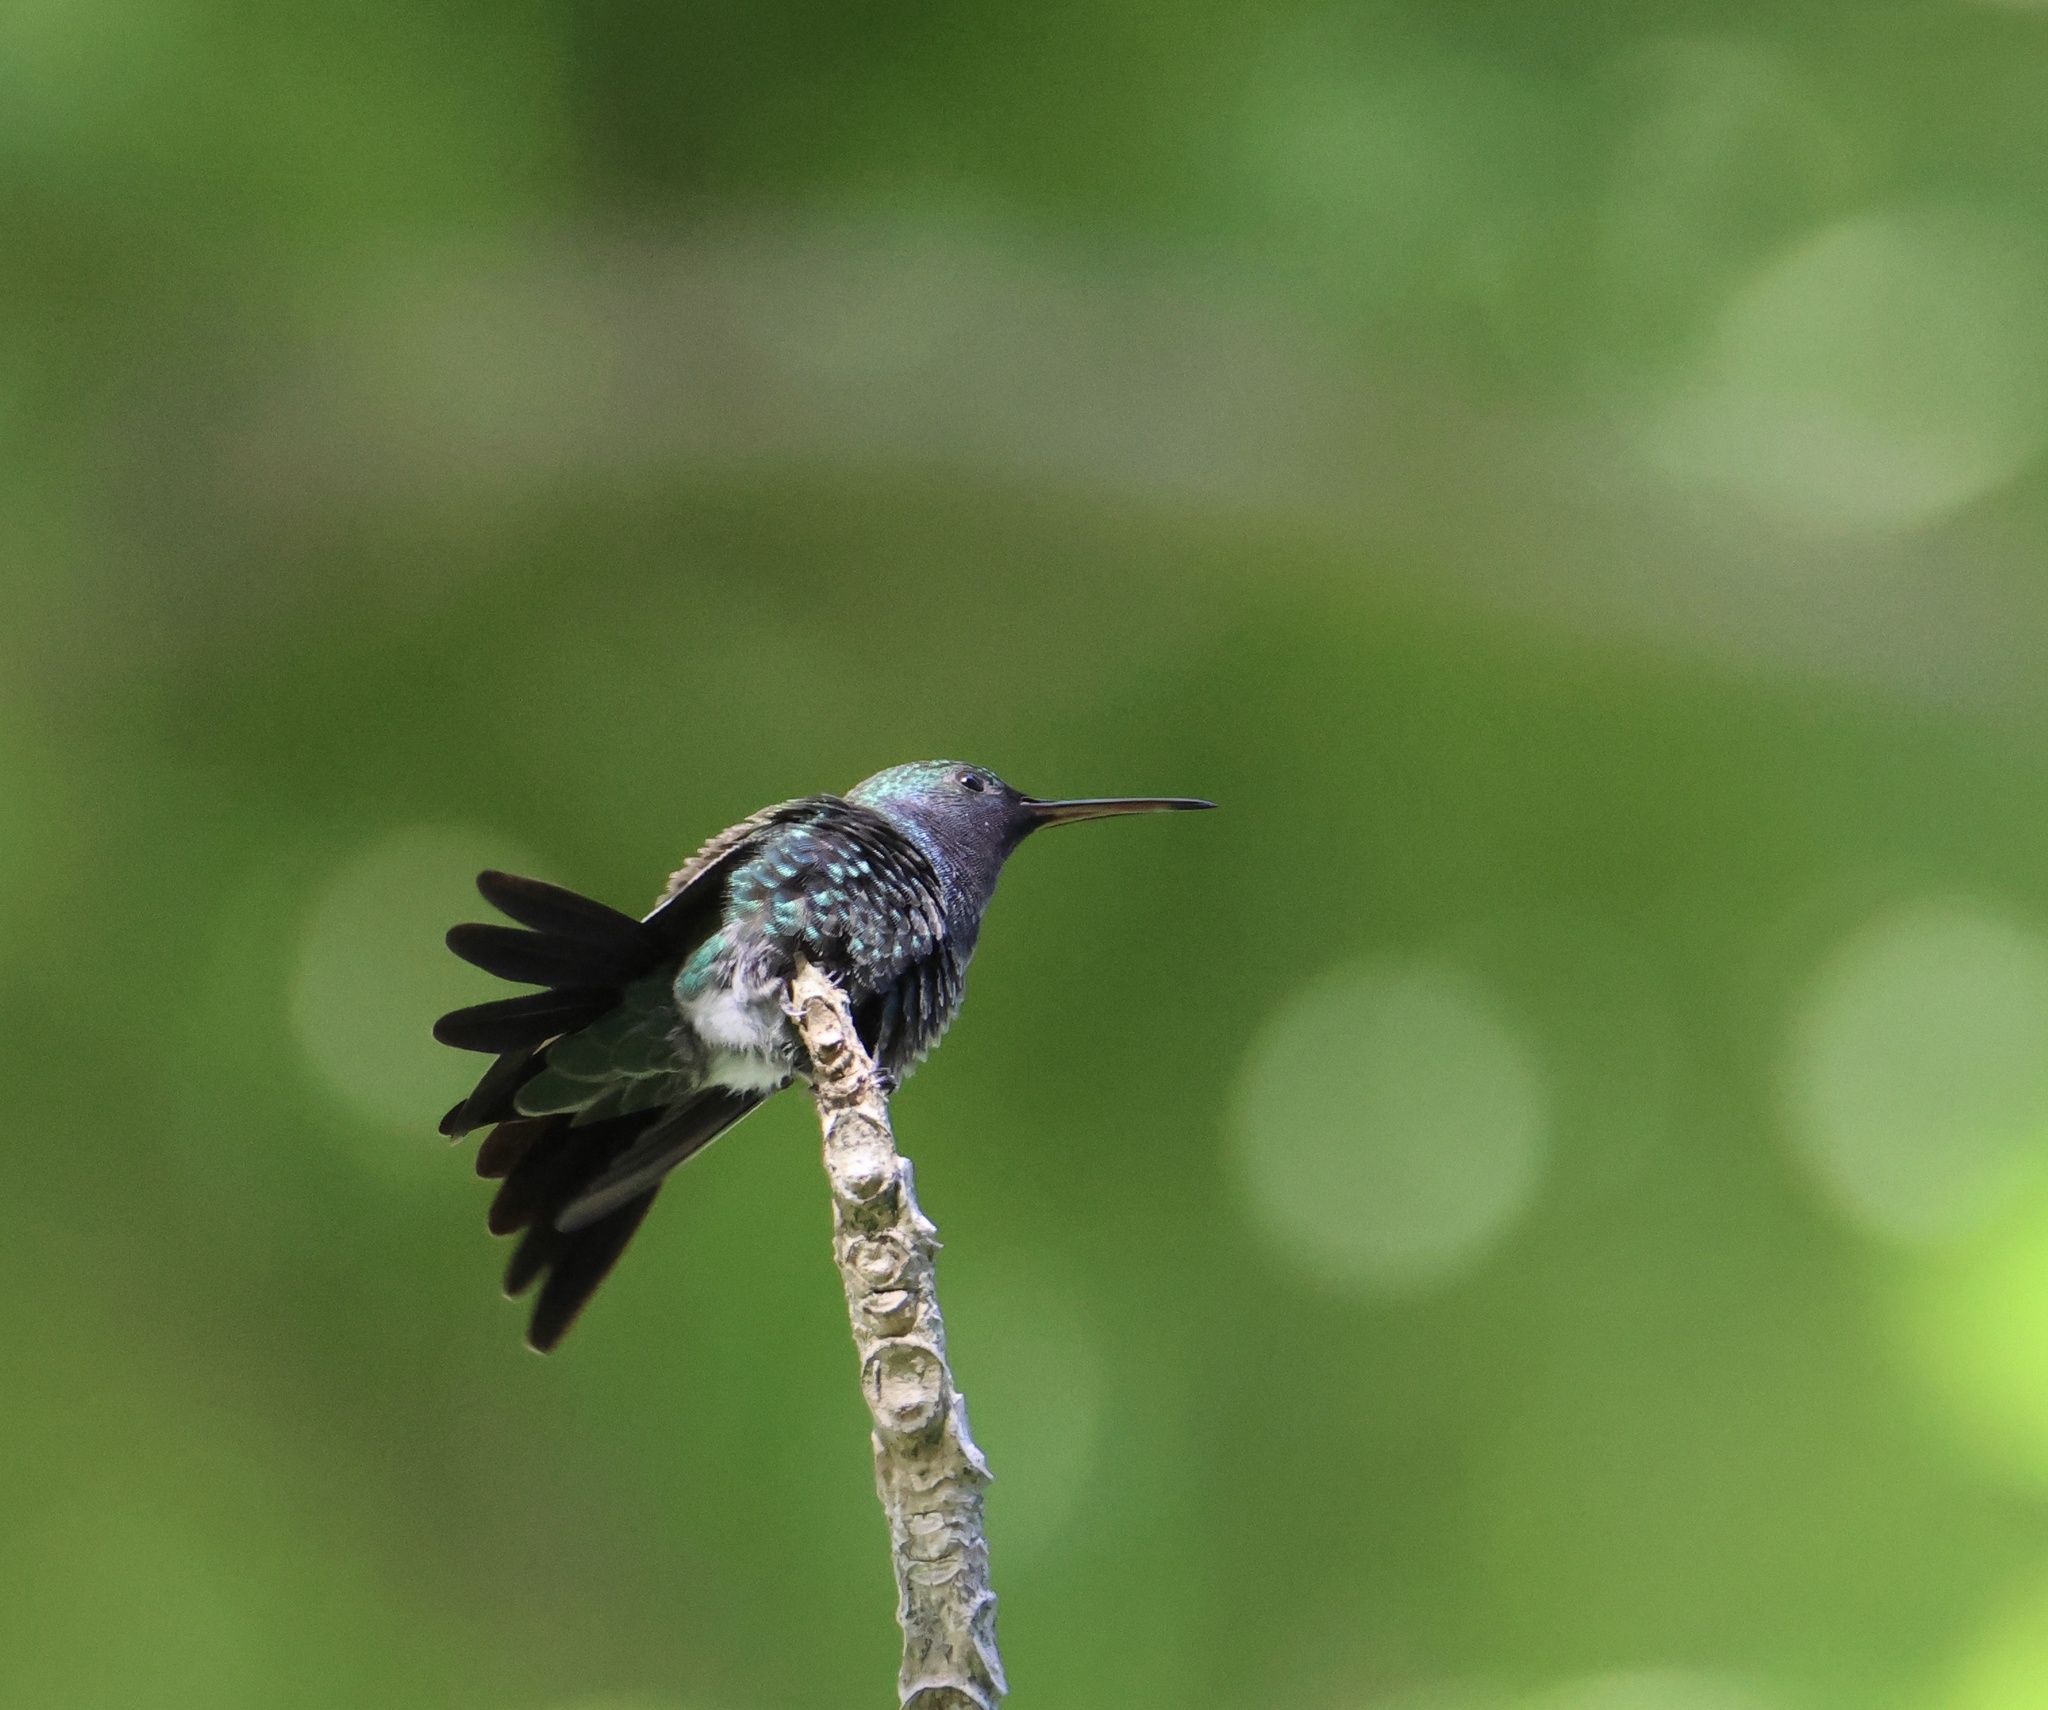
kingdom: Animalia
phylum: Chordata
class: Aves
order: Apodiformes
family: Trochilidae
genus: Chrysuronia
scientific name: Chrysuronia coeruleogularis
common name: Sapphire-throated hummingbird
